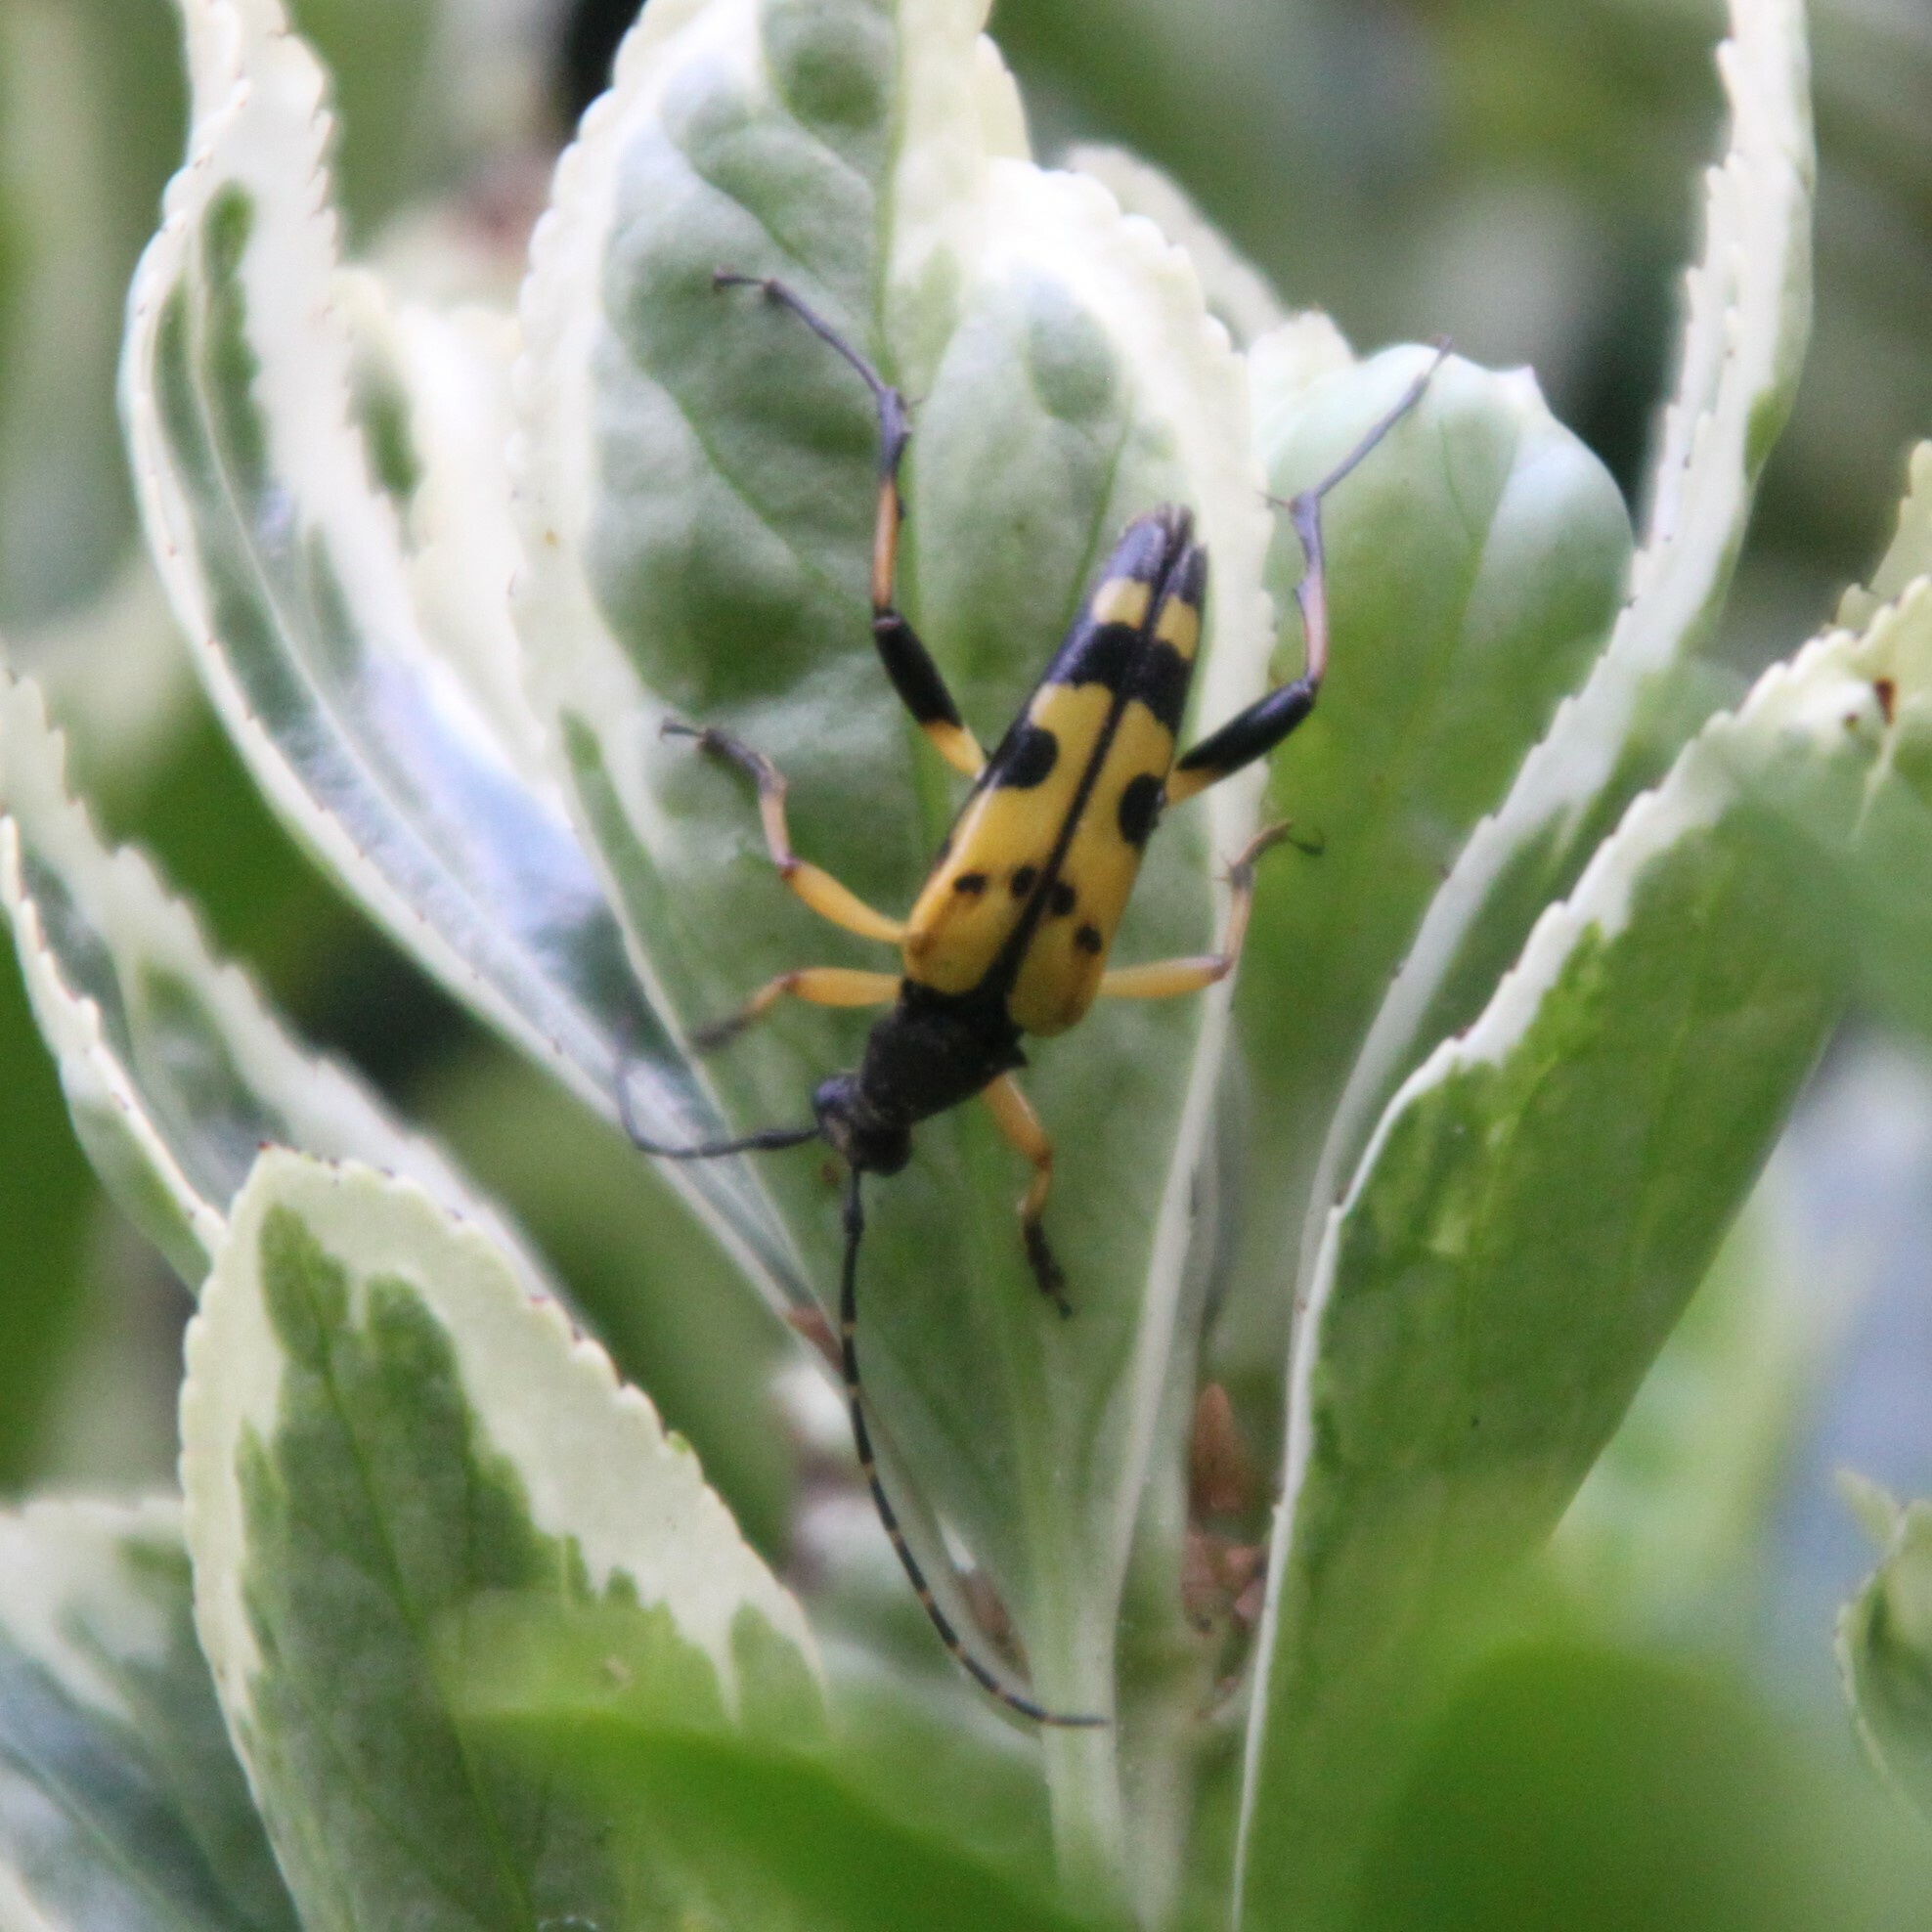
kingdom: Animalia
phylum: Arthropoda
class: Insecta
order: Coleoptera
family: Cerambycidae
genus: Rutpela
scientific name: Rutpela maculata
